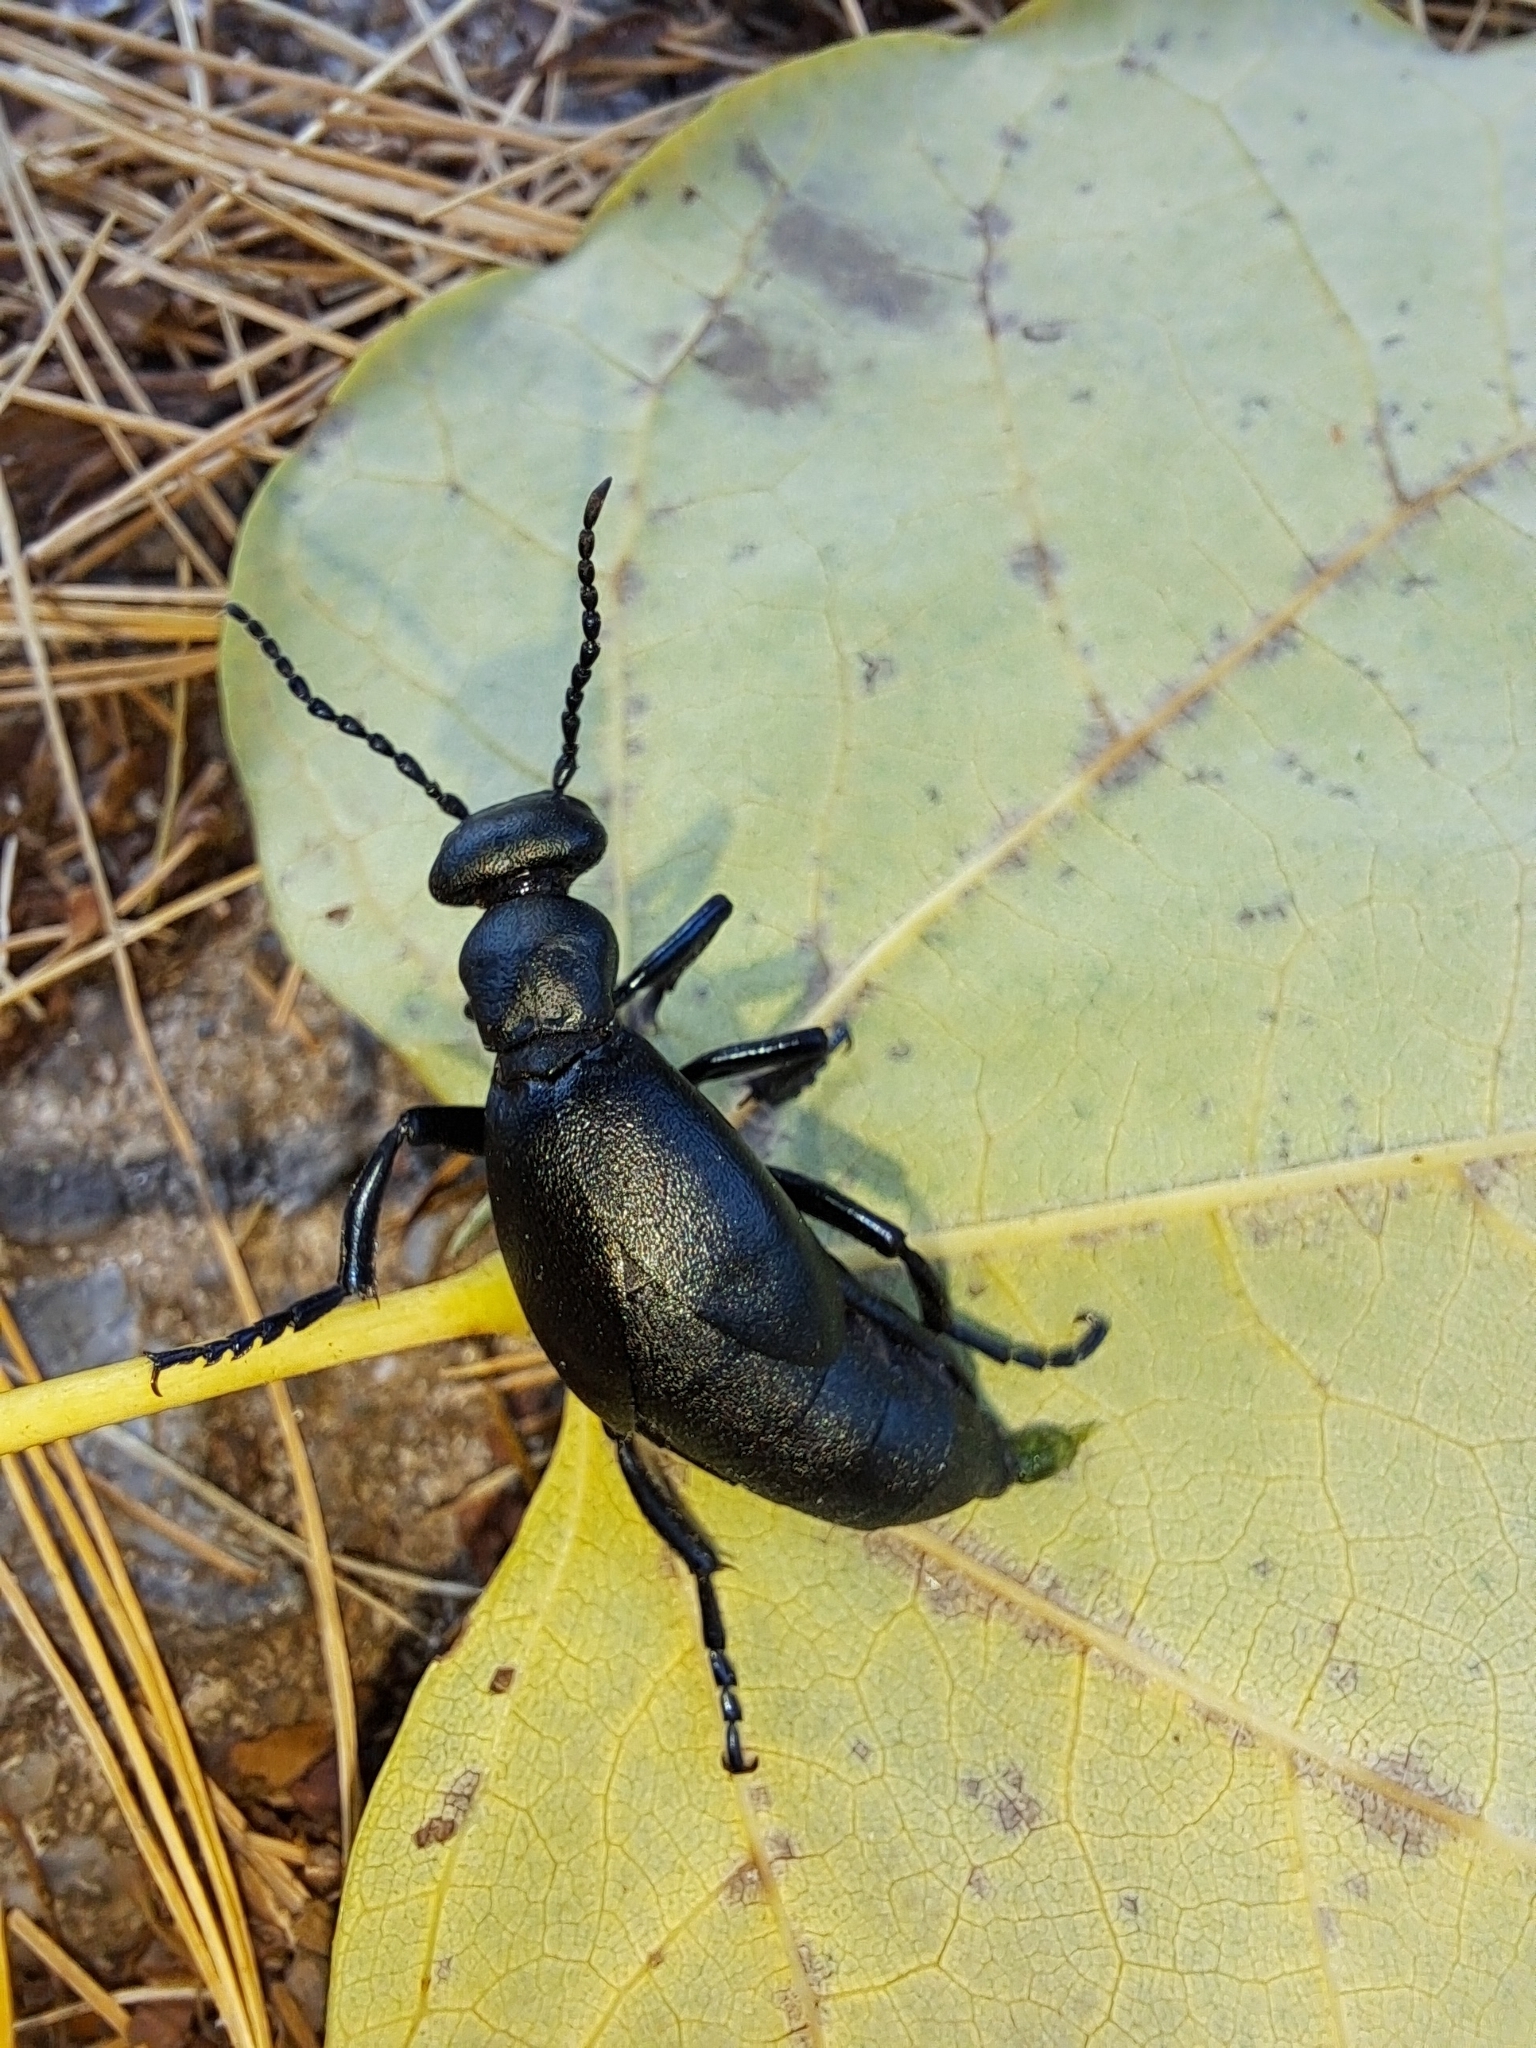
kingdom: Animalia
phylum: Arthropoda
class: Insecta
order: Coleoptera
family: Meloidae
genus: Meloe
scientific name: Meloe campanicollis
